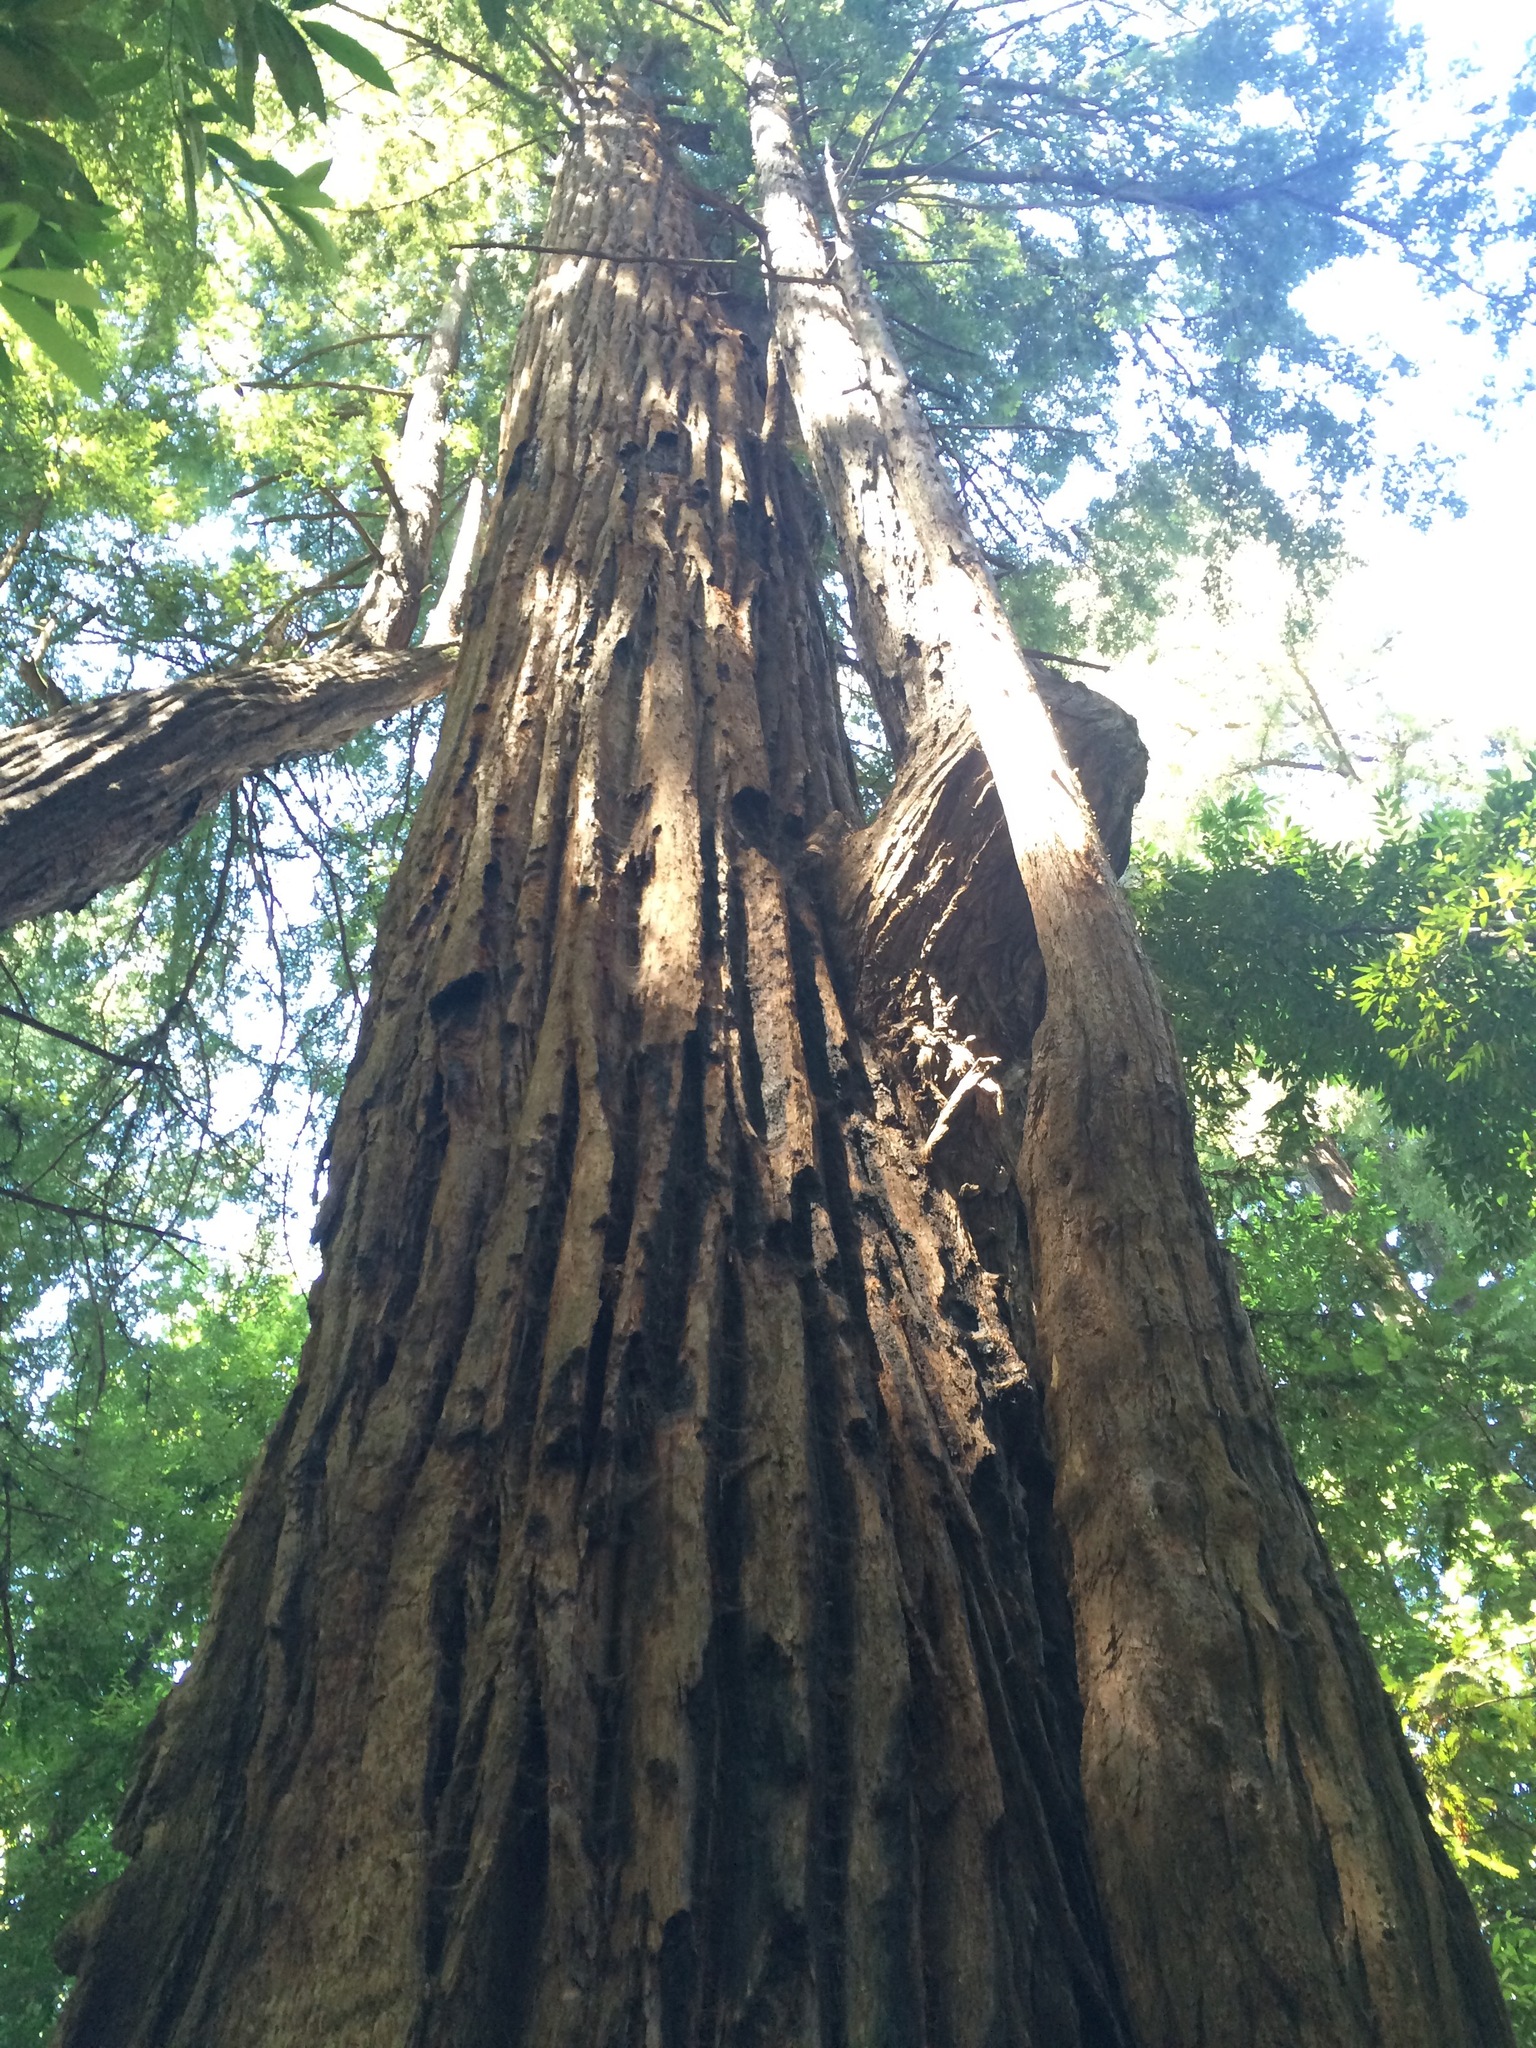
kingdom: Plantae
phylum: Tracheophyta
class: Pinopsida
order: Pinales
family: Cupressaceae
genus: Sequoia
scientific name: Sequoia sempervirens
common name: Coast redwood
